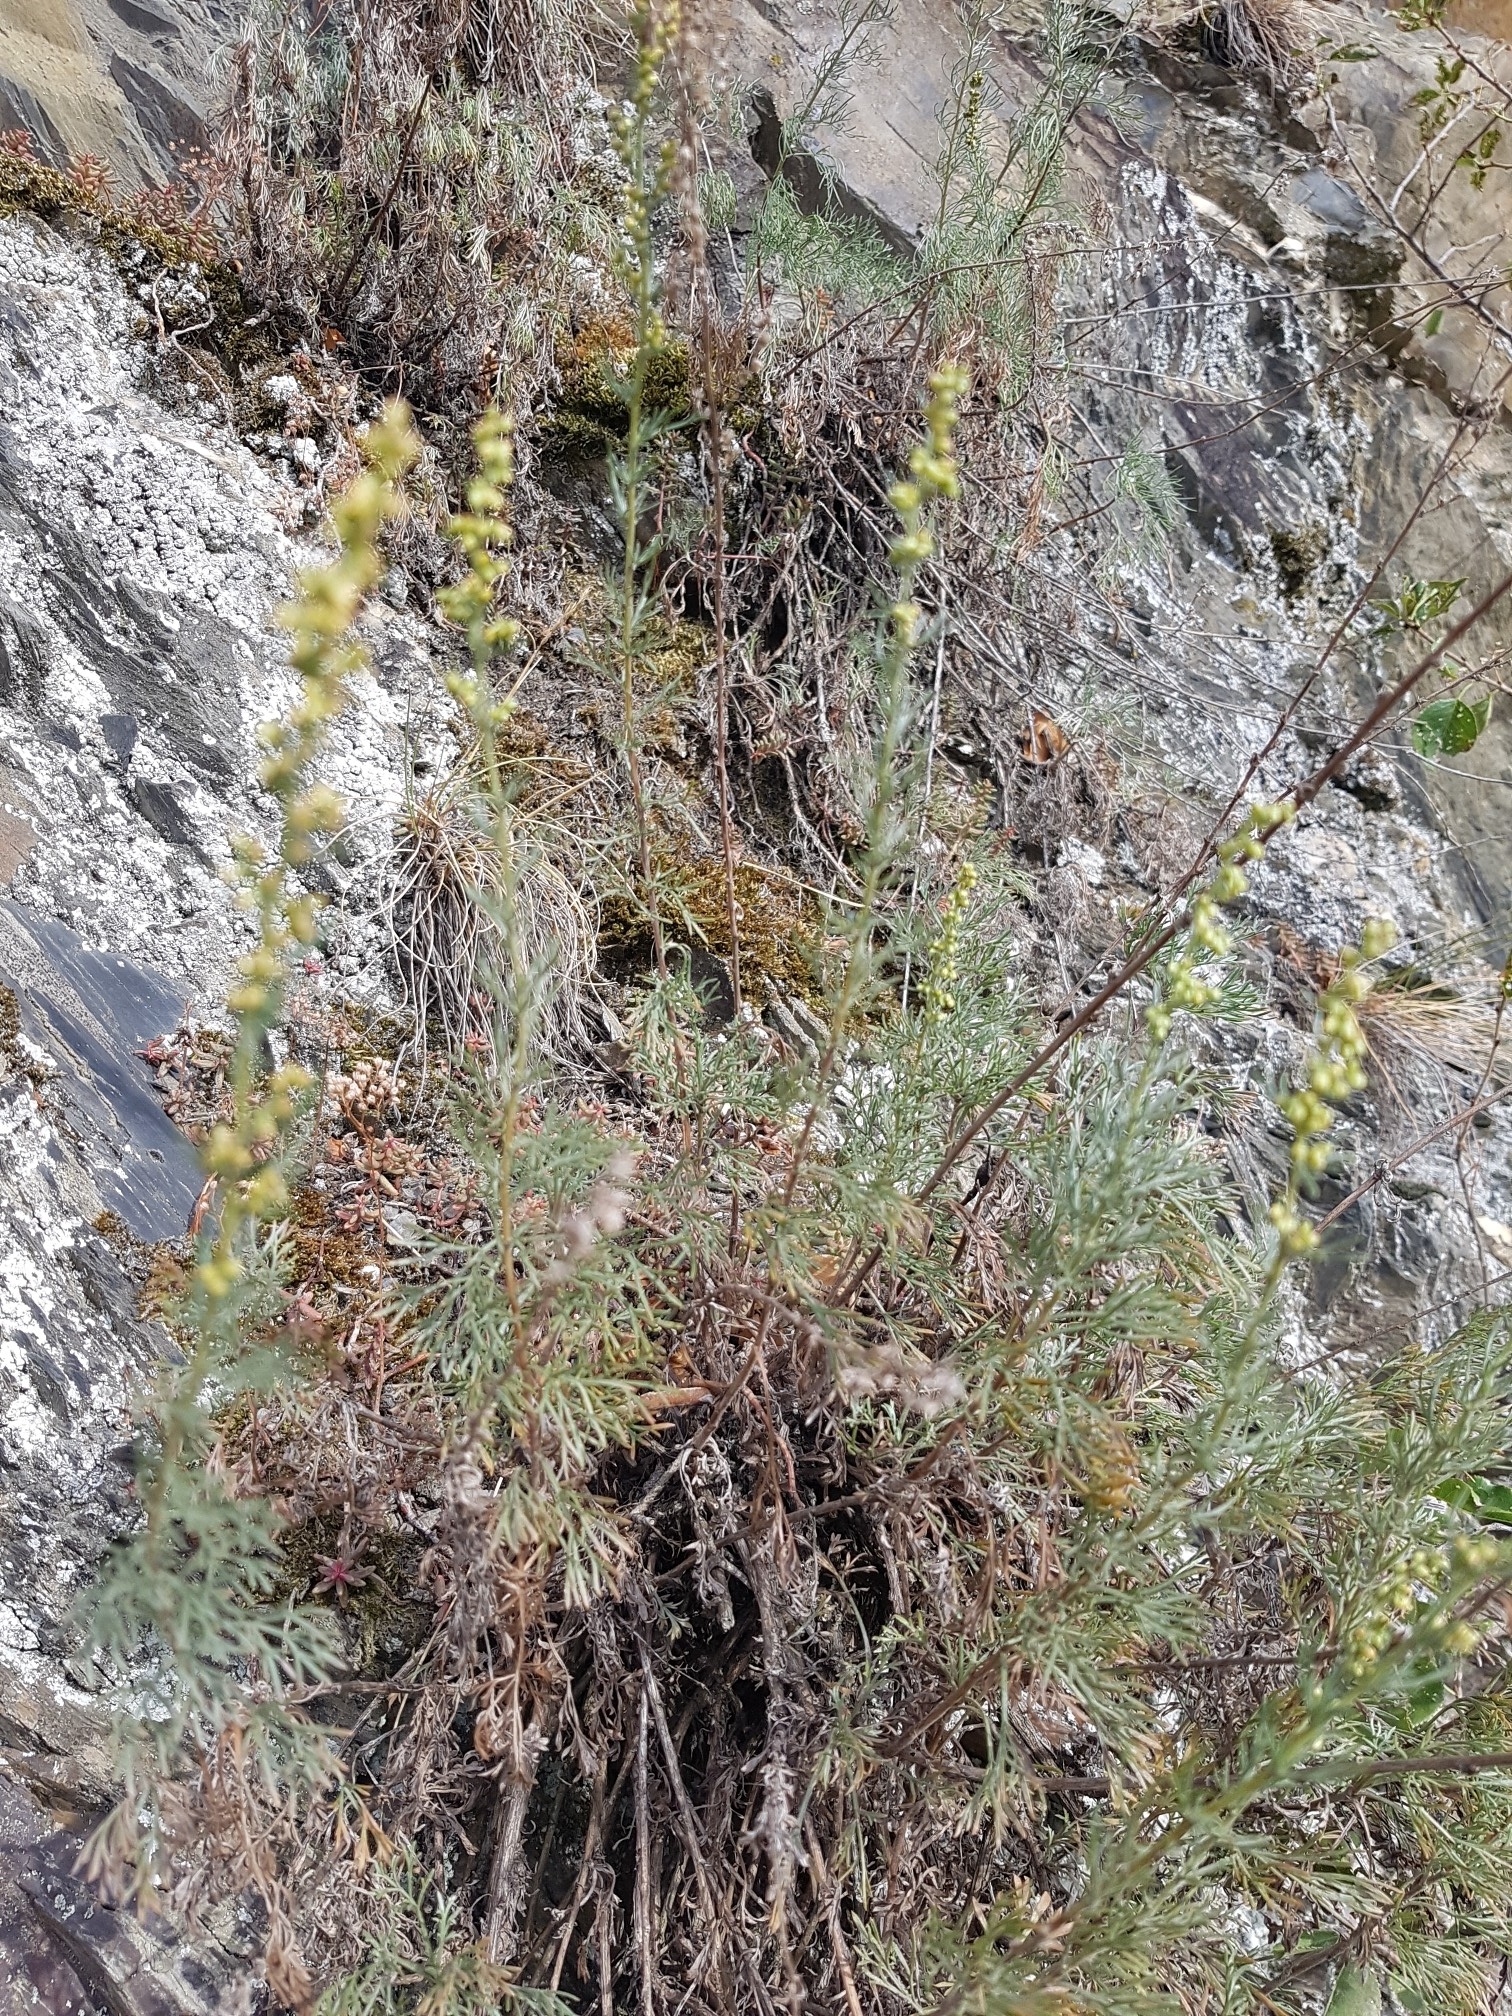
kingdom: Plantae
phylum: Tracheophyta
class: Magnoliopsida
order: Asterales
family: Asteraceae
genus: Artemisia
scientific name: Artemisia absinthium
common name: Wormwood
